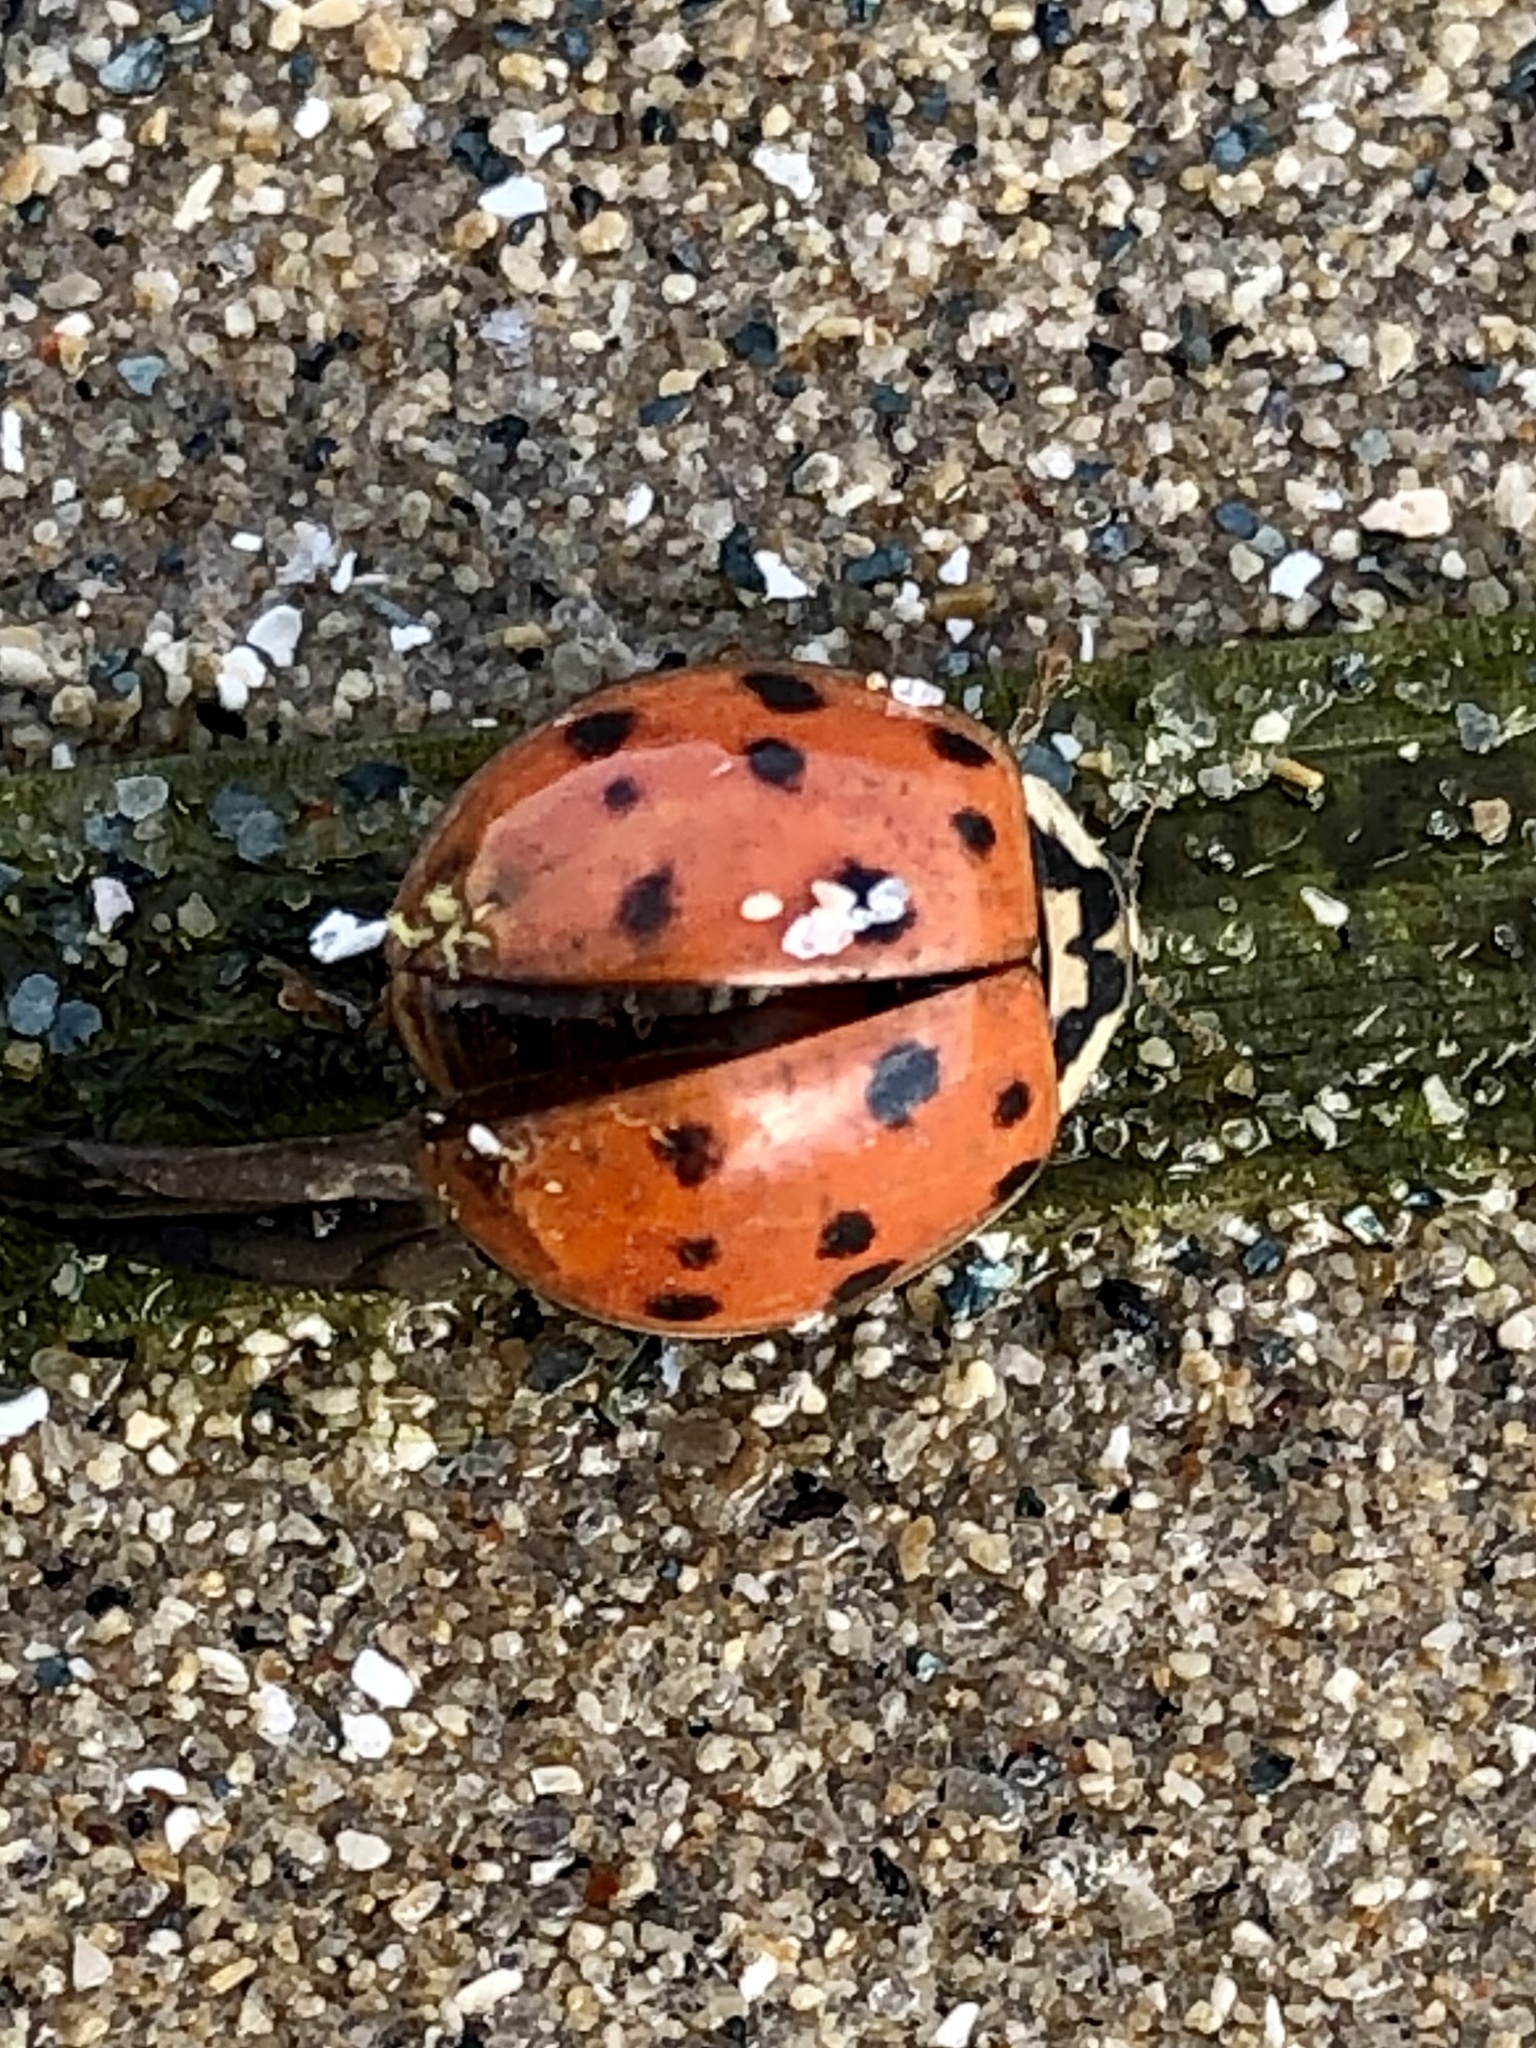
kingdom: Animalia
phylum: Arthropoda
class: Insecta
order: Coleoptera
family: Coccinellidae
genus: Harmonia
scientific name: Harmonia axyridis
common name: Harlequin ladybird
